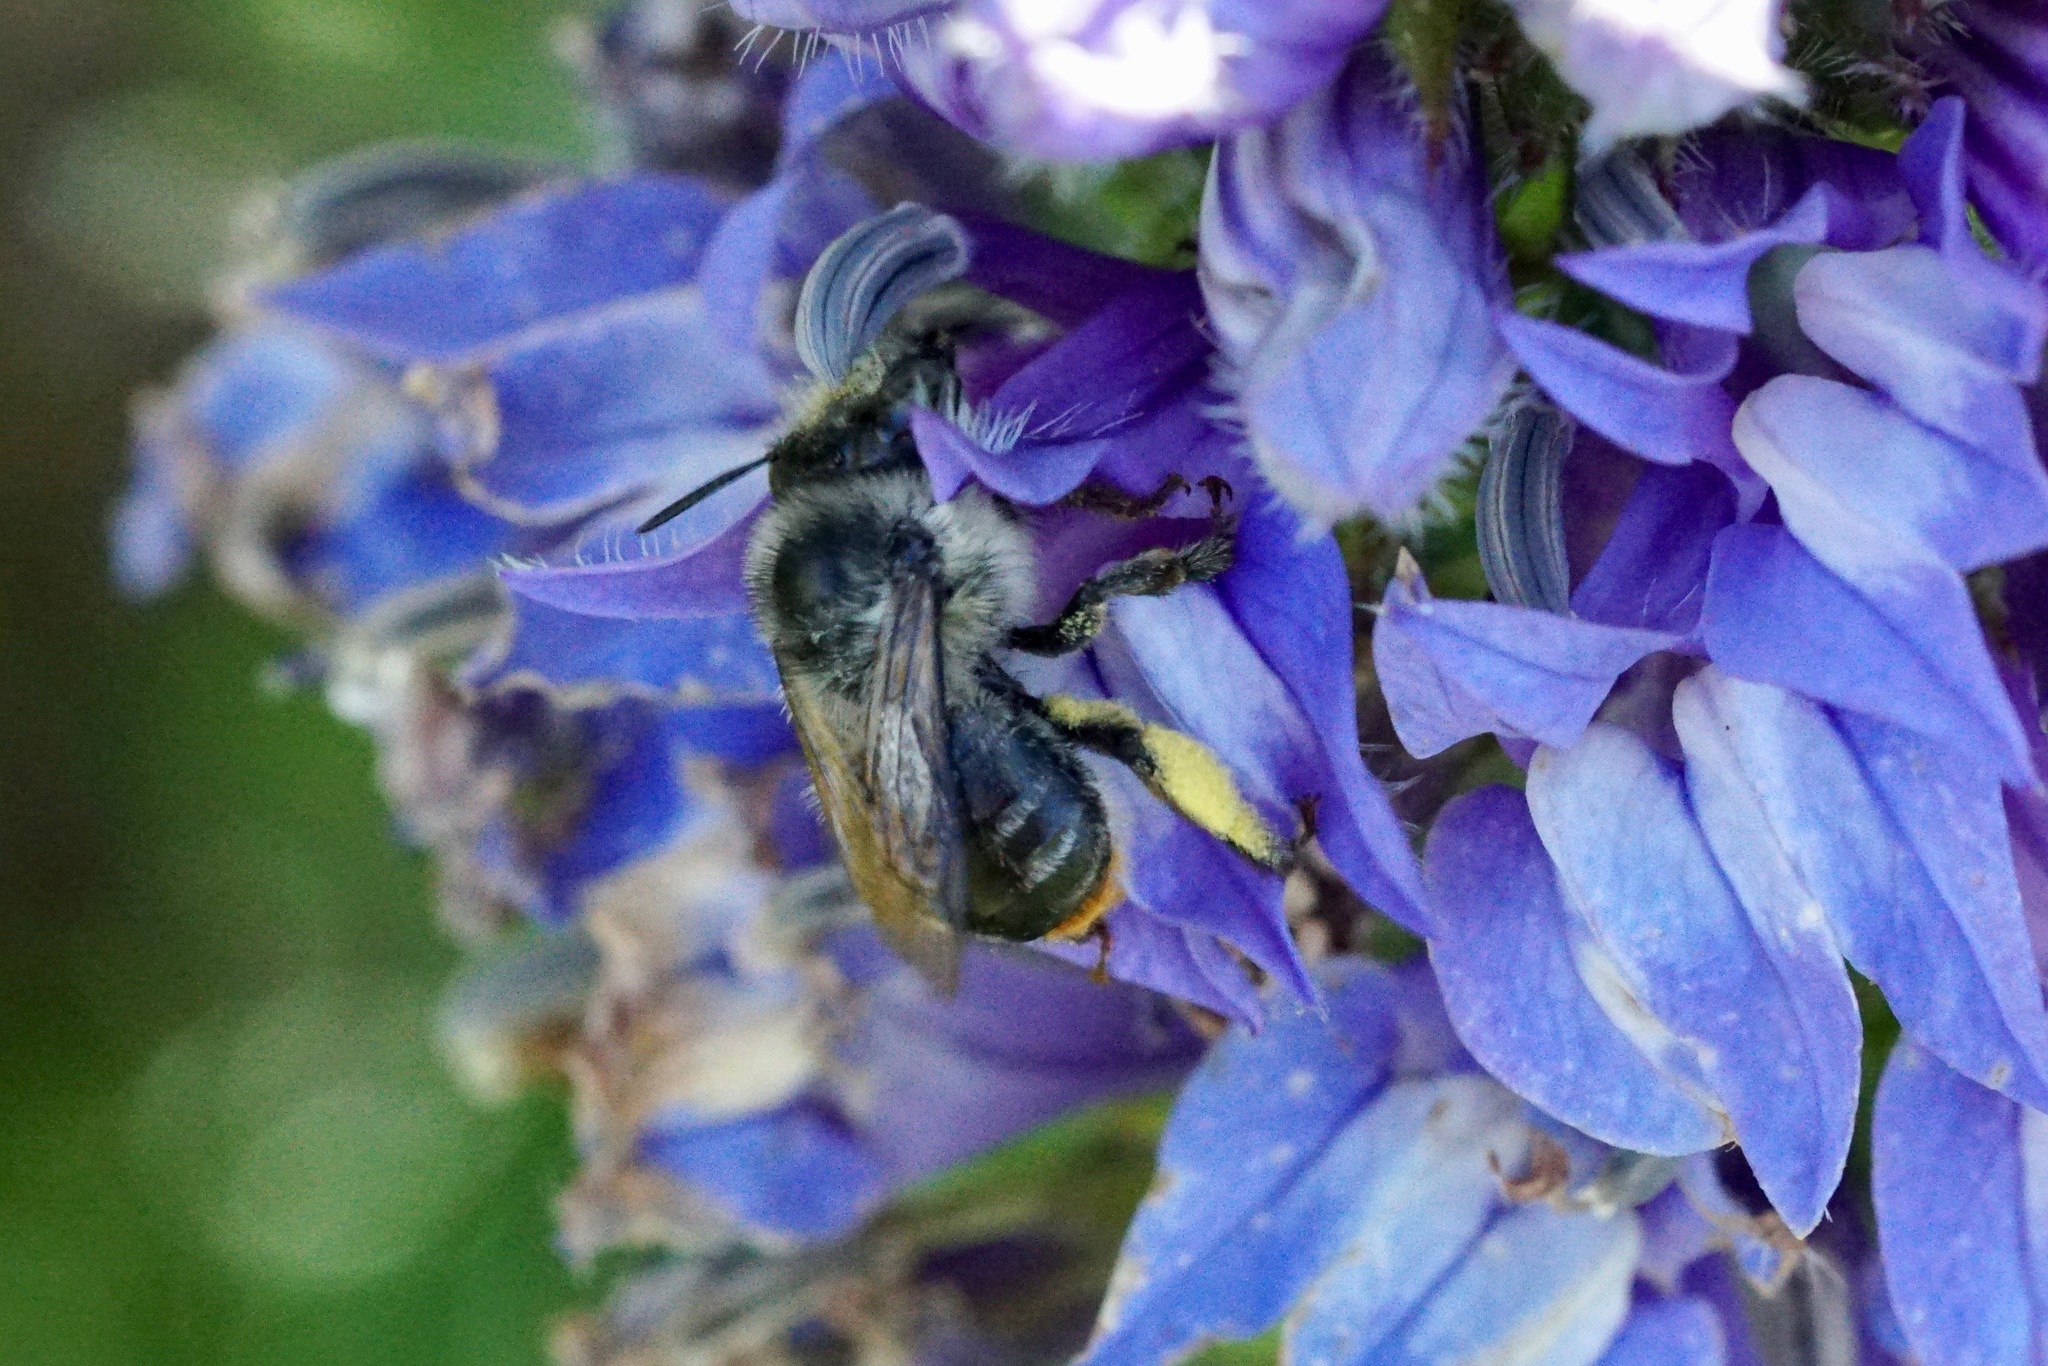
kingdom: Animalia
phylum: Arthropoda
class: Insecta
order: Hymenoptera
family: Apidae
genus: Anthophora
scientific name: Anthophora terminalis
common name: Orange-tipped wood-digger bee
